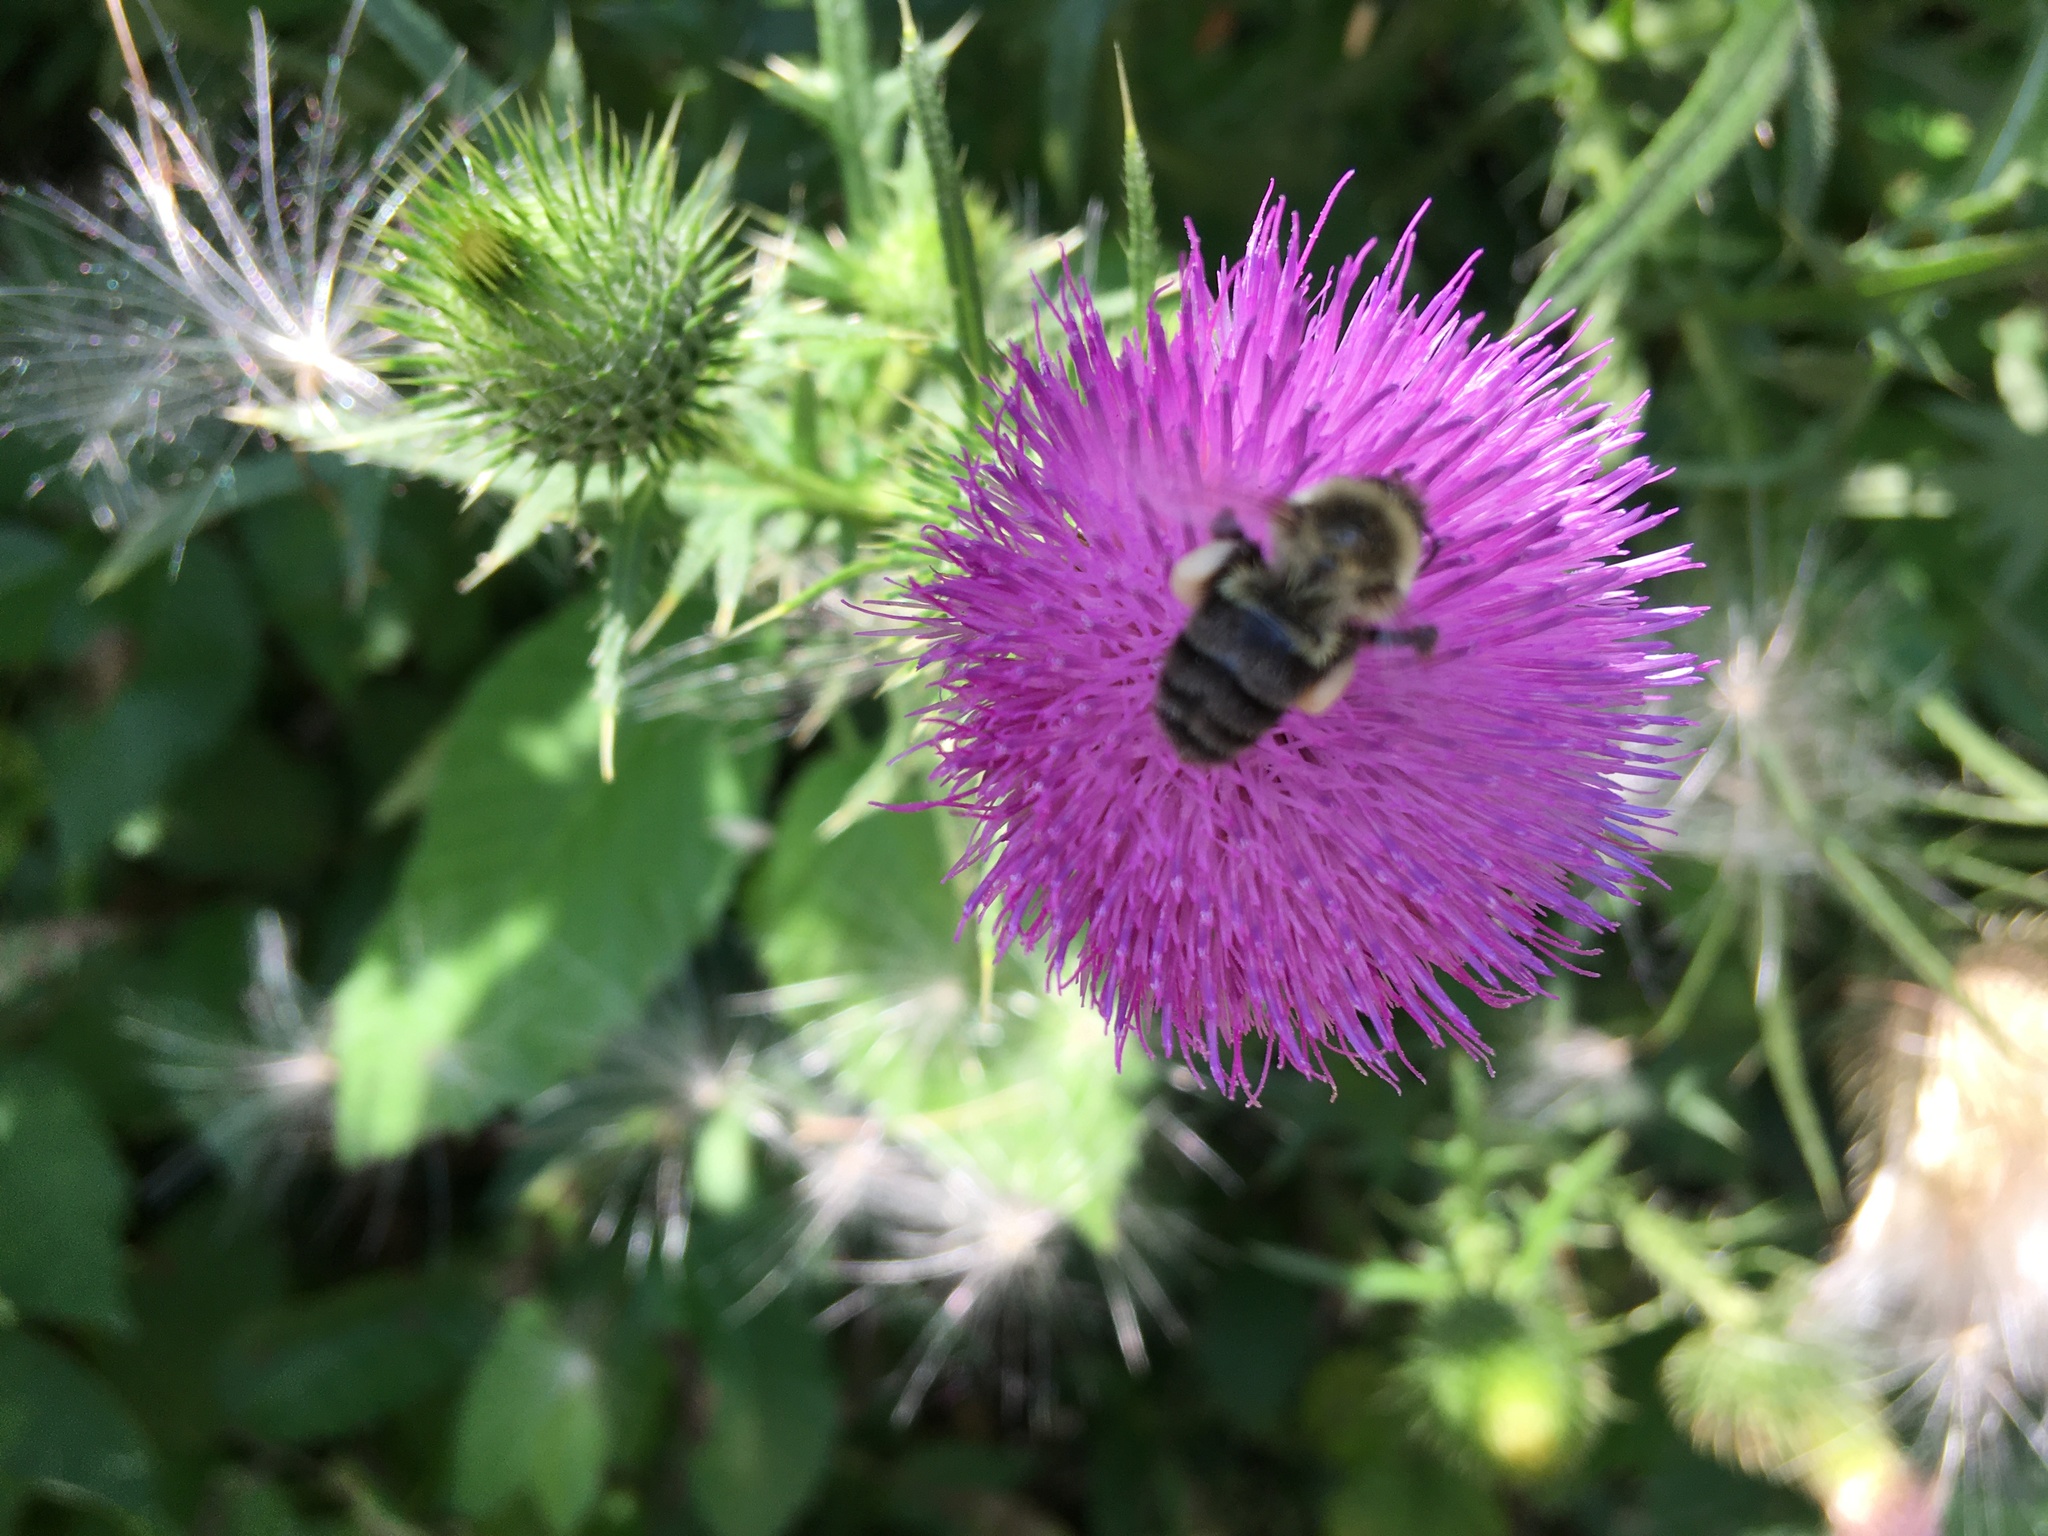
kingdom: Animalia
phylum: Arthropoda
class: Insecta
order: Hymenoptera
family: Apidae
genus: Bombus
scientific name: Bombus impatiens
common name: Common eastern bumble bee
